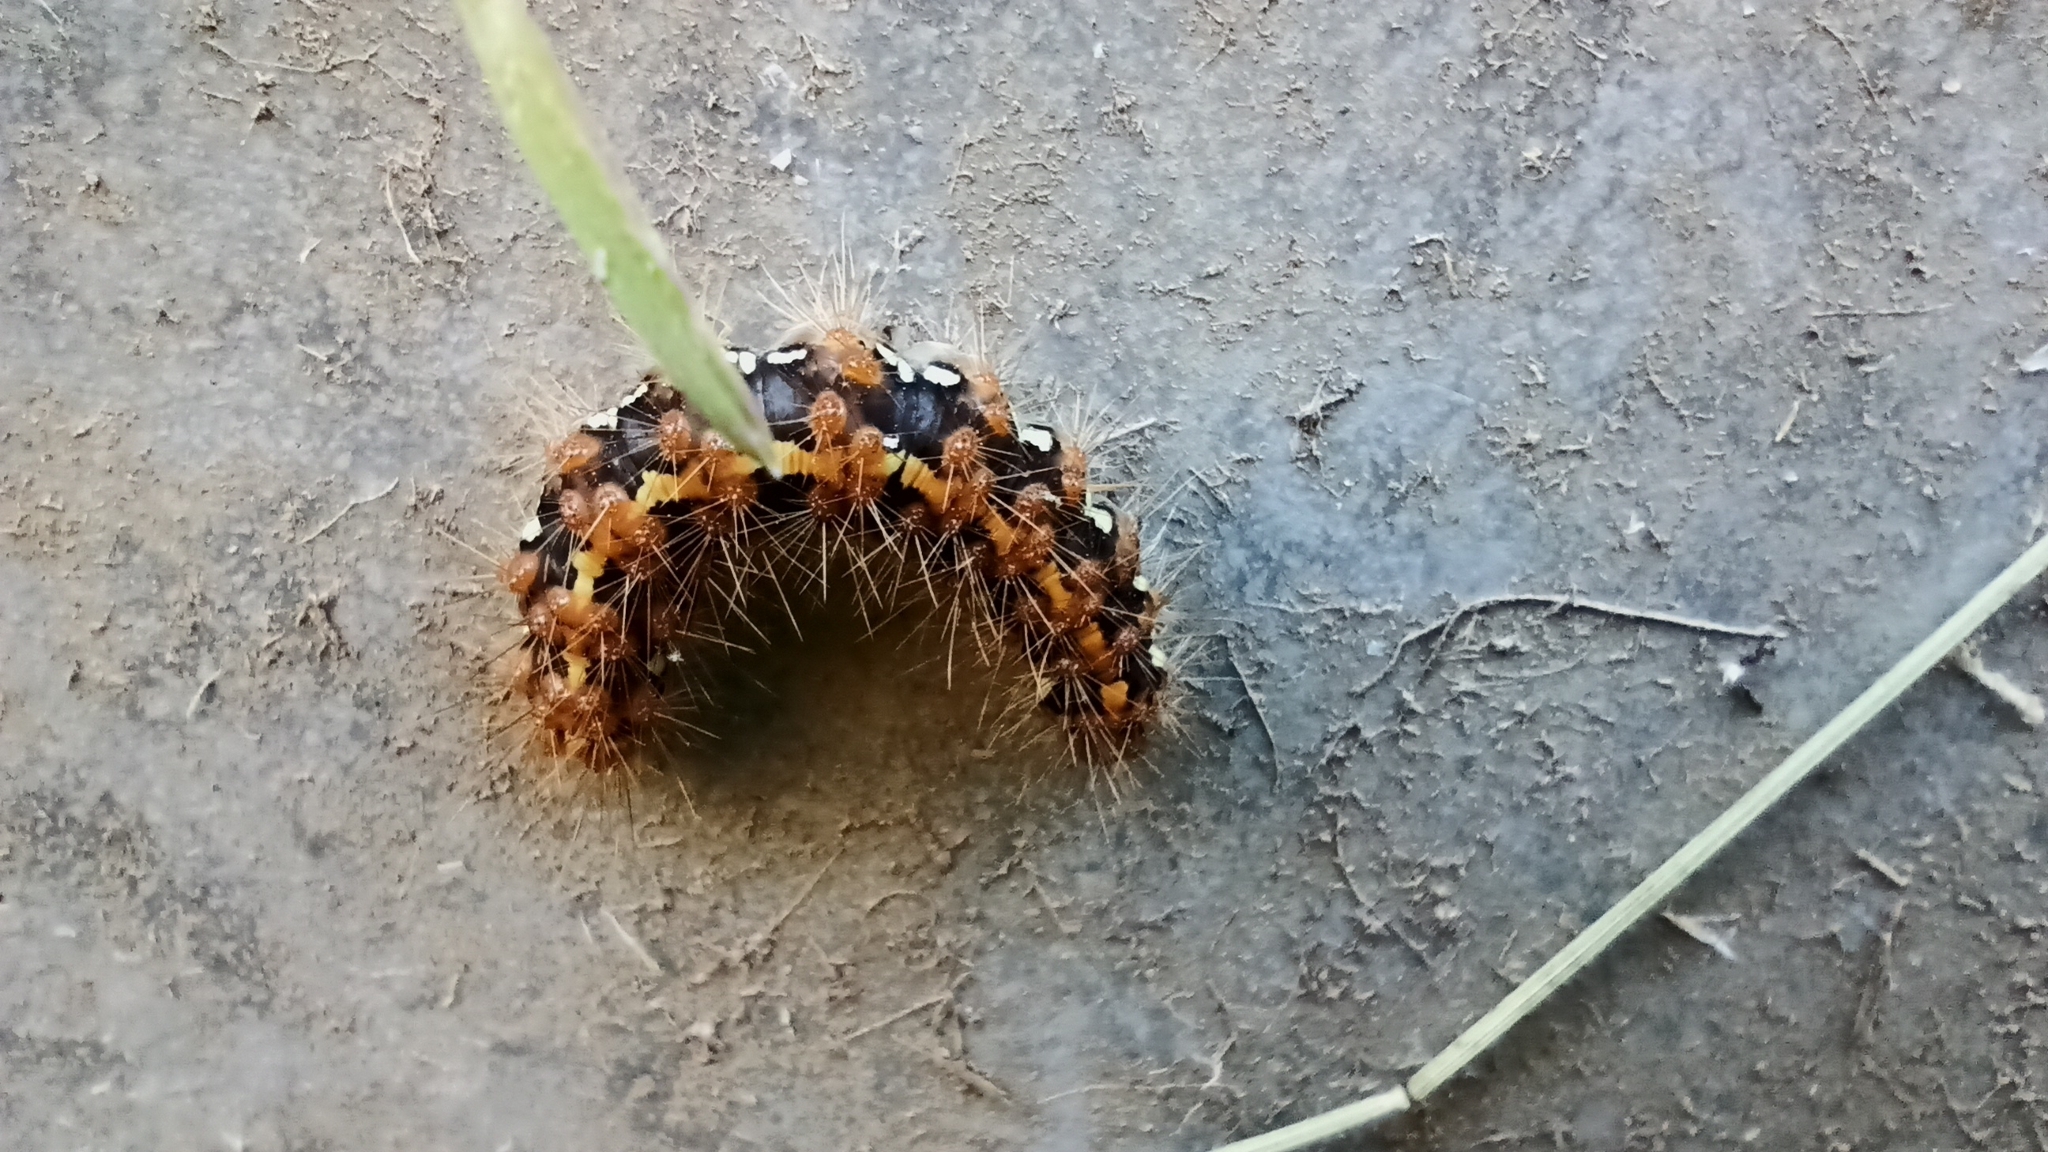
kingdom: Animalia
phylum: Arthropoda
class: Insecta
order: Lepidoptera
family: Erebidae
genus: Euplagia
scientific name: Euplagia quadripunctaria
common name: Jersey tiger
